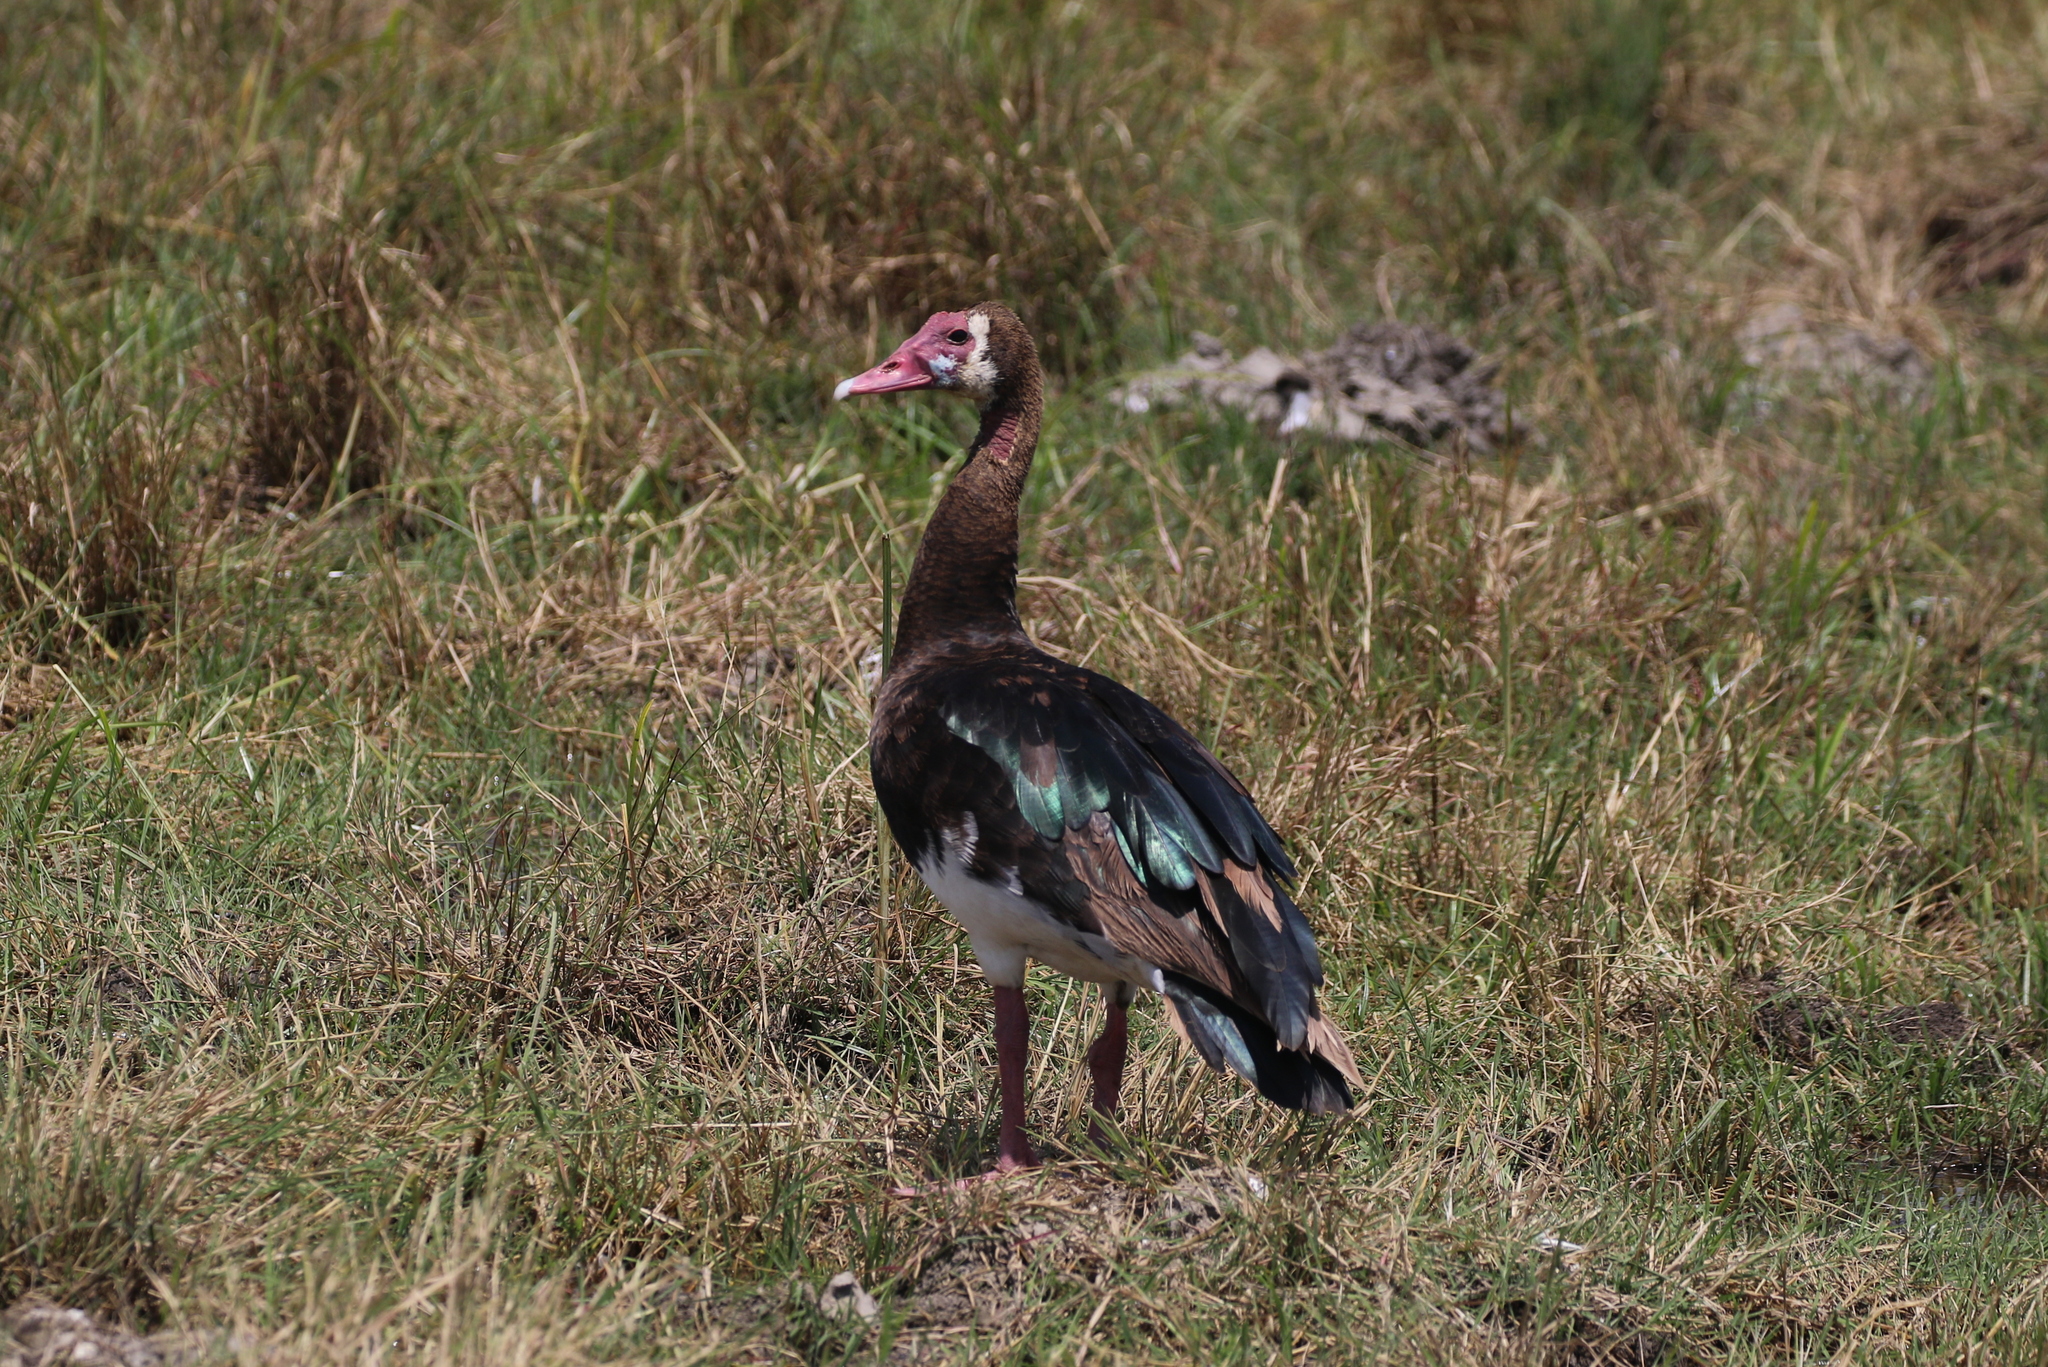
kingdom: Animalia
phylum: Chordata
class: Aves
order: Anseriformes
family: Anatidae
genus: Plectropterus
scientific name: Plectropterus gambensis
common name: Spur-winged goose
